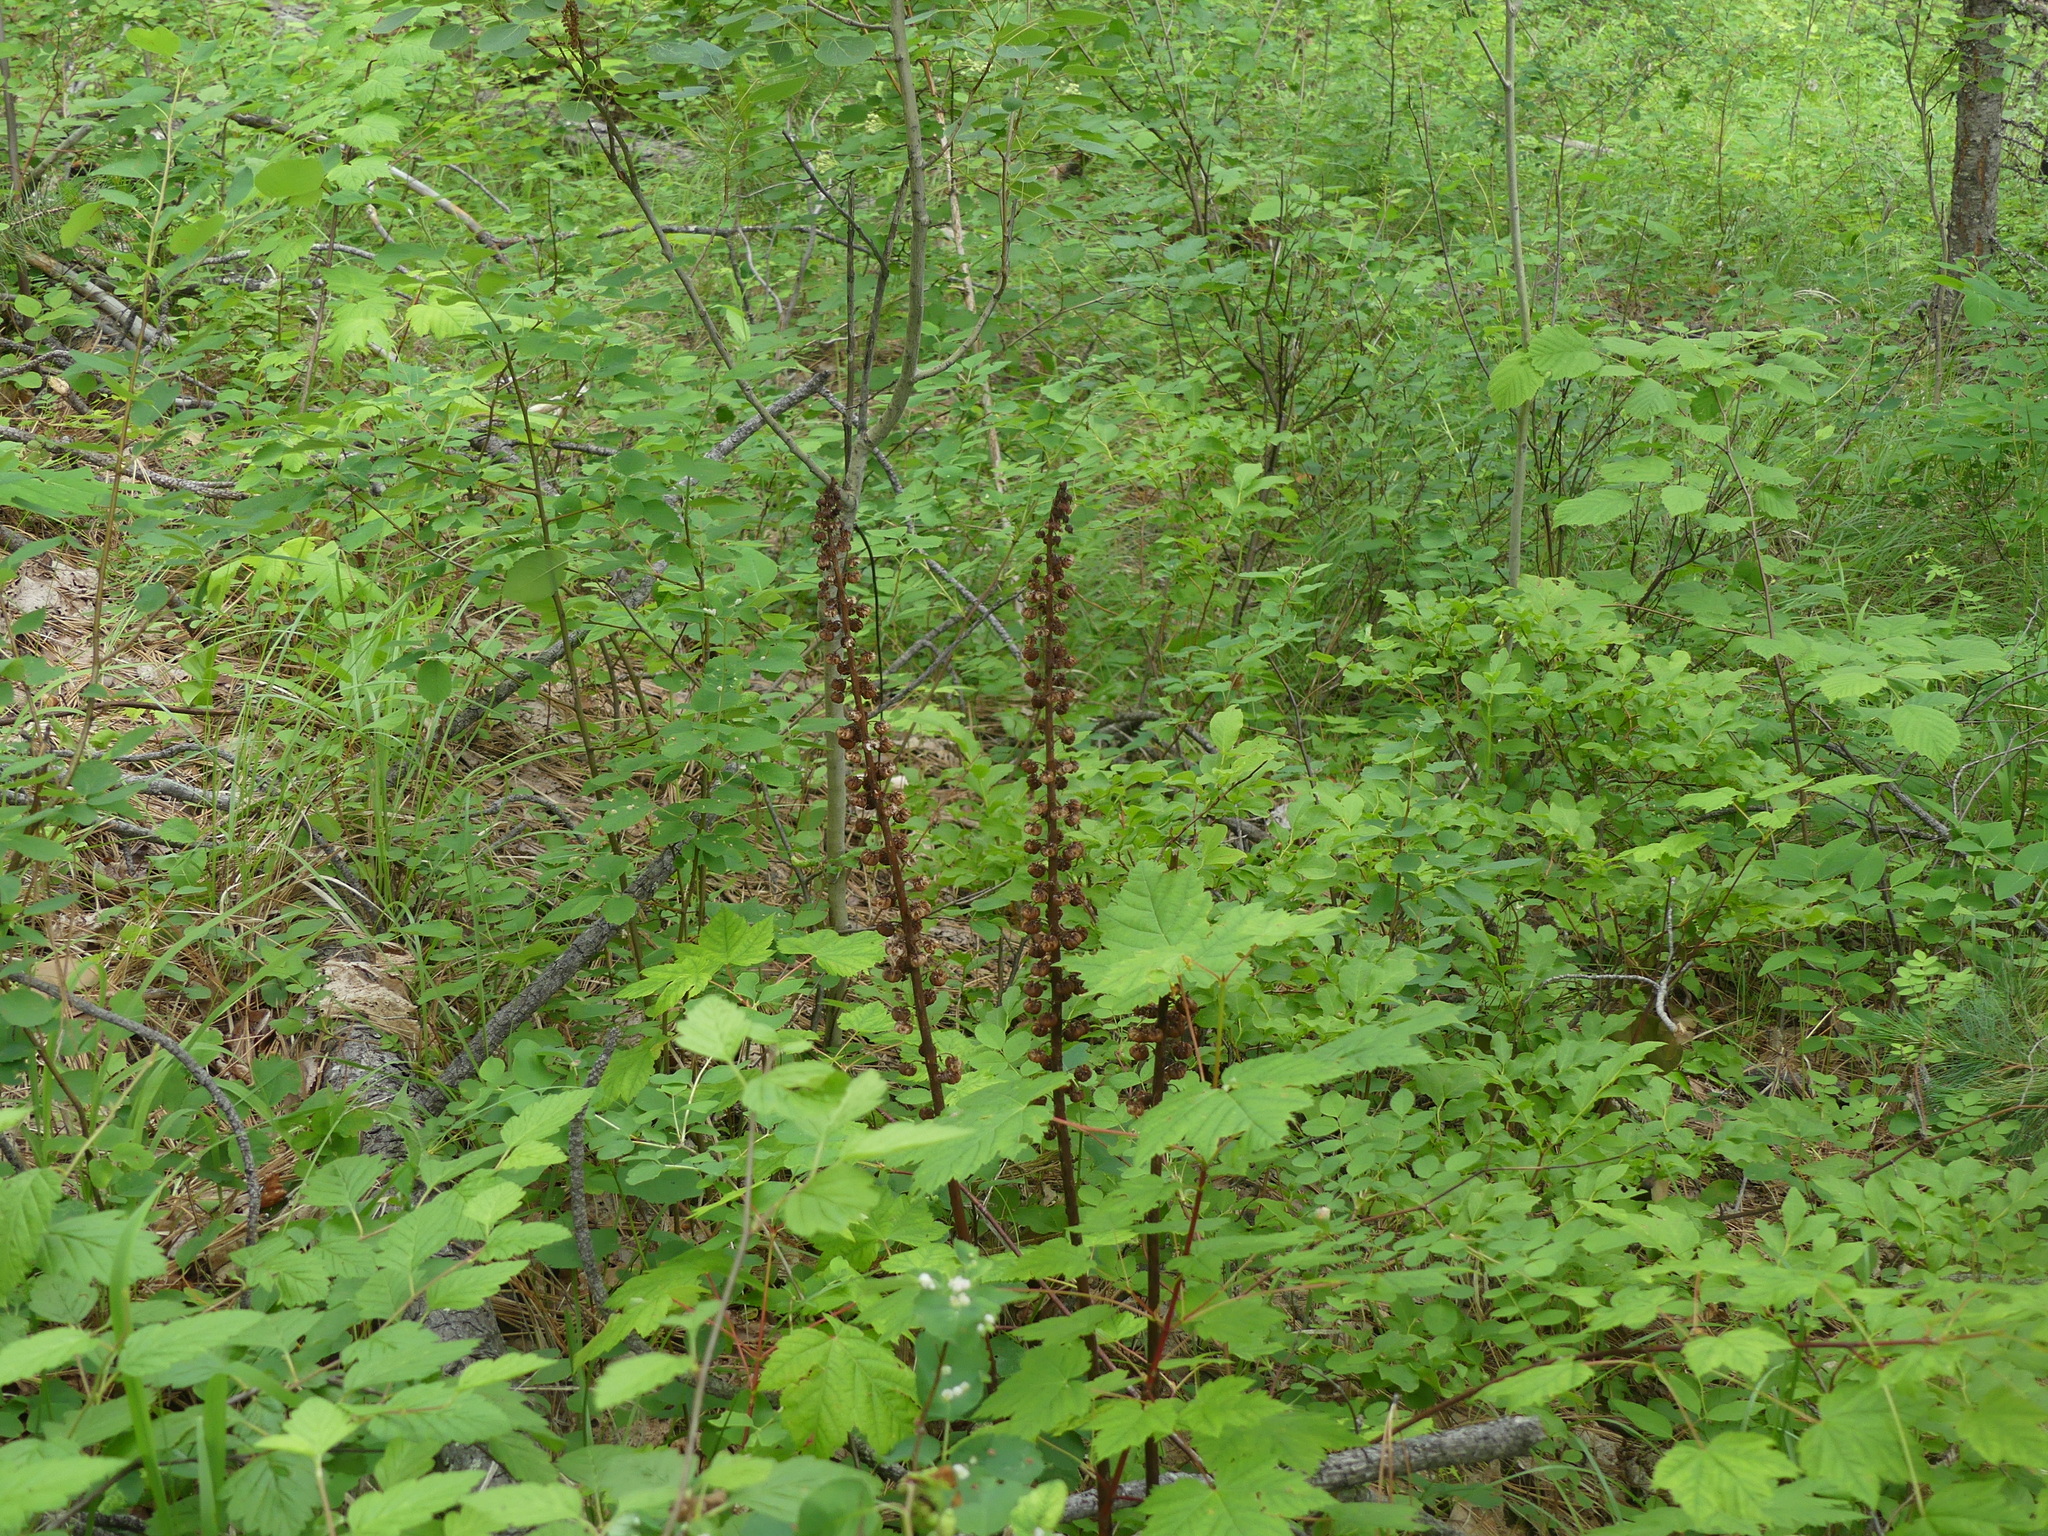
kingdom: Plantae
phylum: Tracheophyta
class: Magnoliopsida
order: Ericales
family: Ericaceae
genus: Pterospora
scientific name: Pterospora andromedea
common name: Giant bird's-nest
